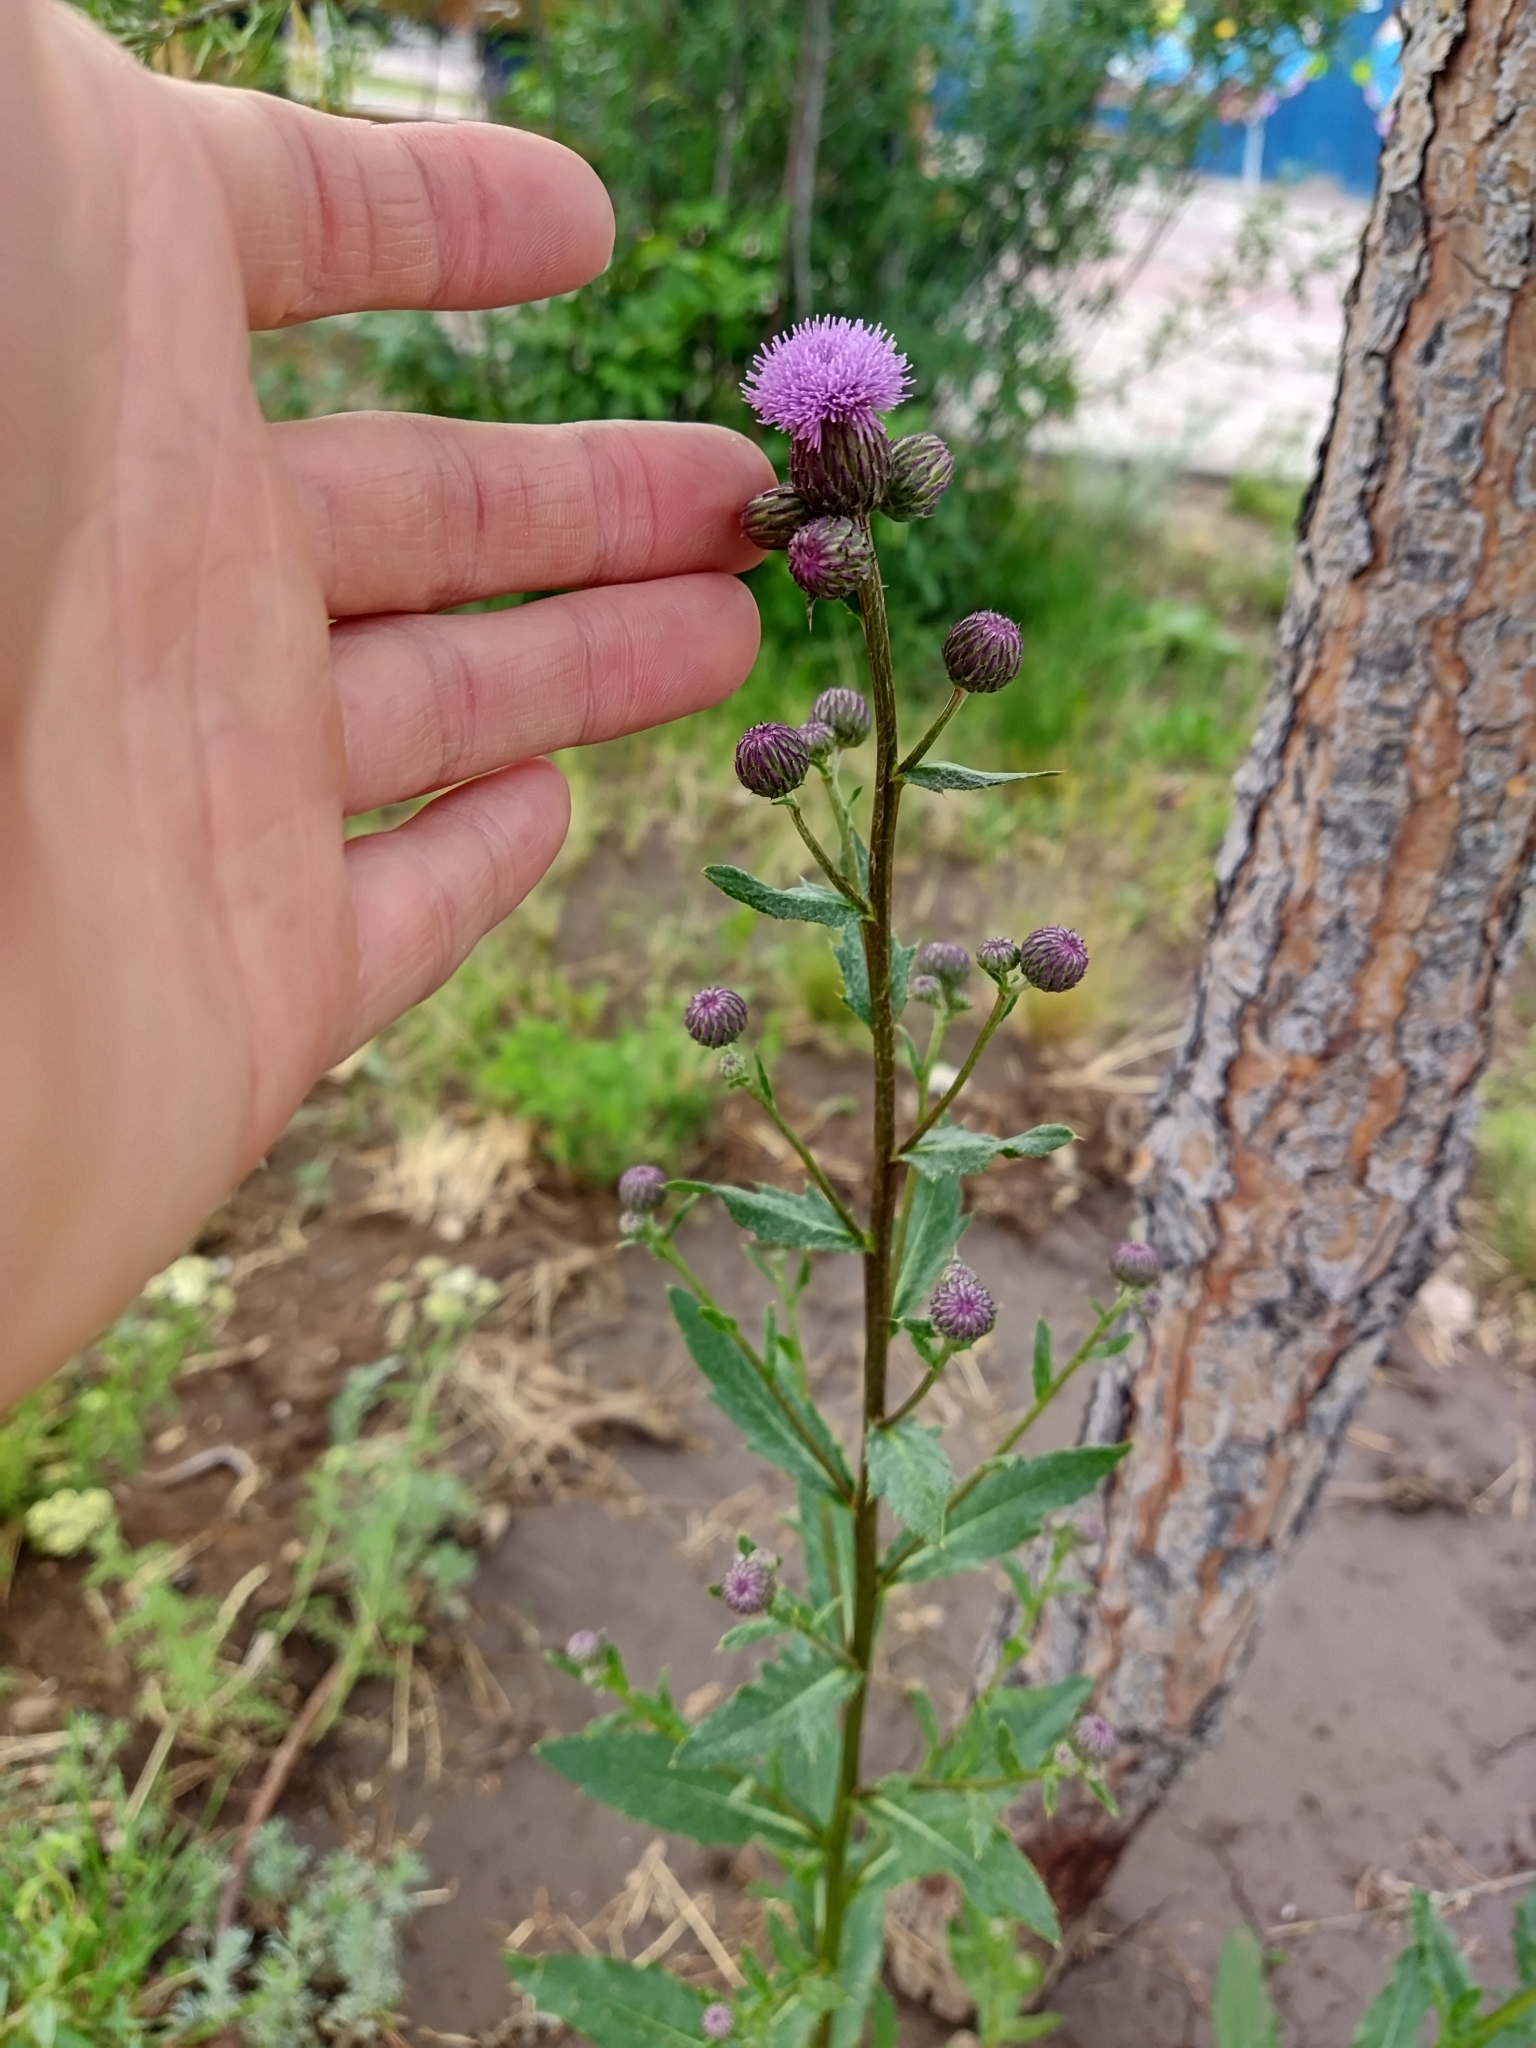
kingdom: Plantae
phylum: Tracheophyta
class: Magnoliopsida
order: Asterales
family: Asteraceae
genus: Cirsium
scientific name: Cirsium arvense
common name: Creeping thistle
